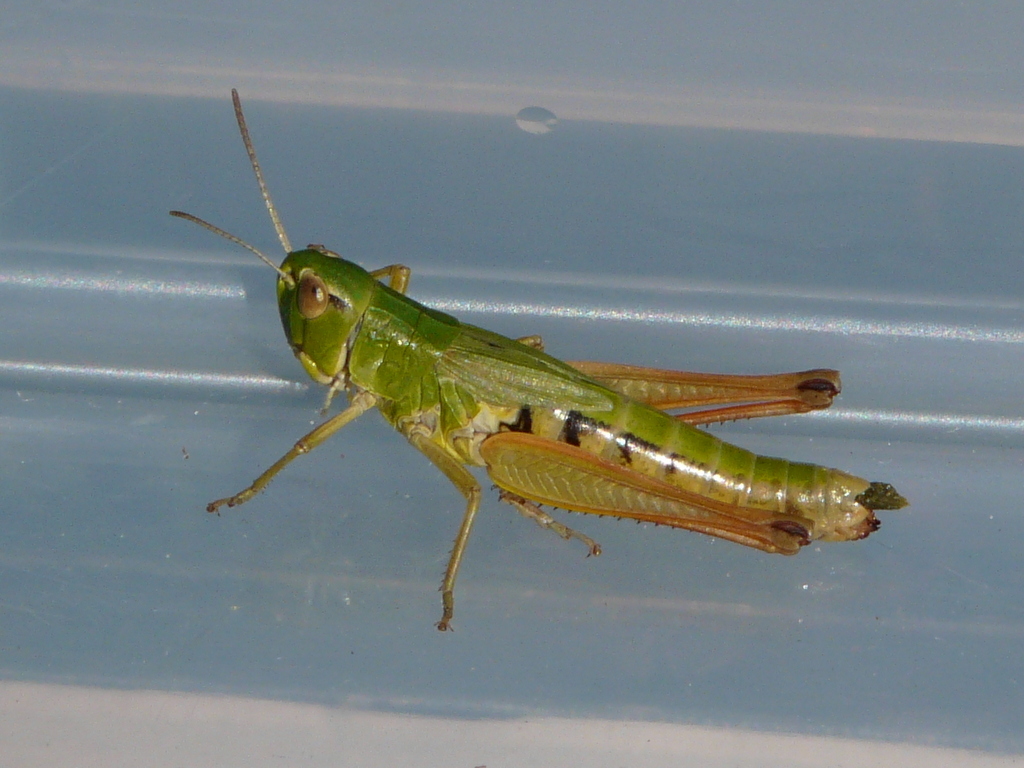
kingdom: Animalia
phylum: Arthropoda
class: Insecta
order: Orthoptera
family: Acrididae
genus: Pseudochorthippus
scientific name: Pseudochorthippus parallelus
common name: Meadow grasshopper
